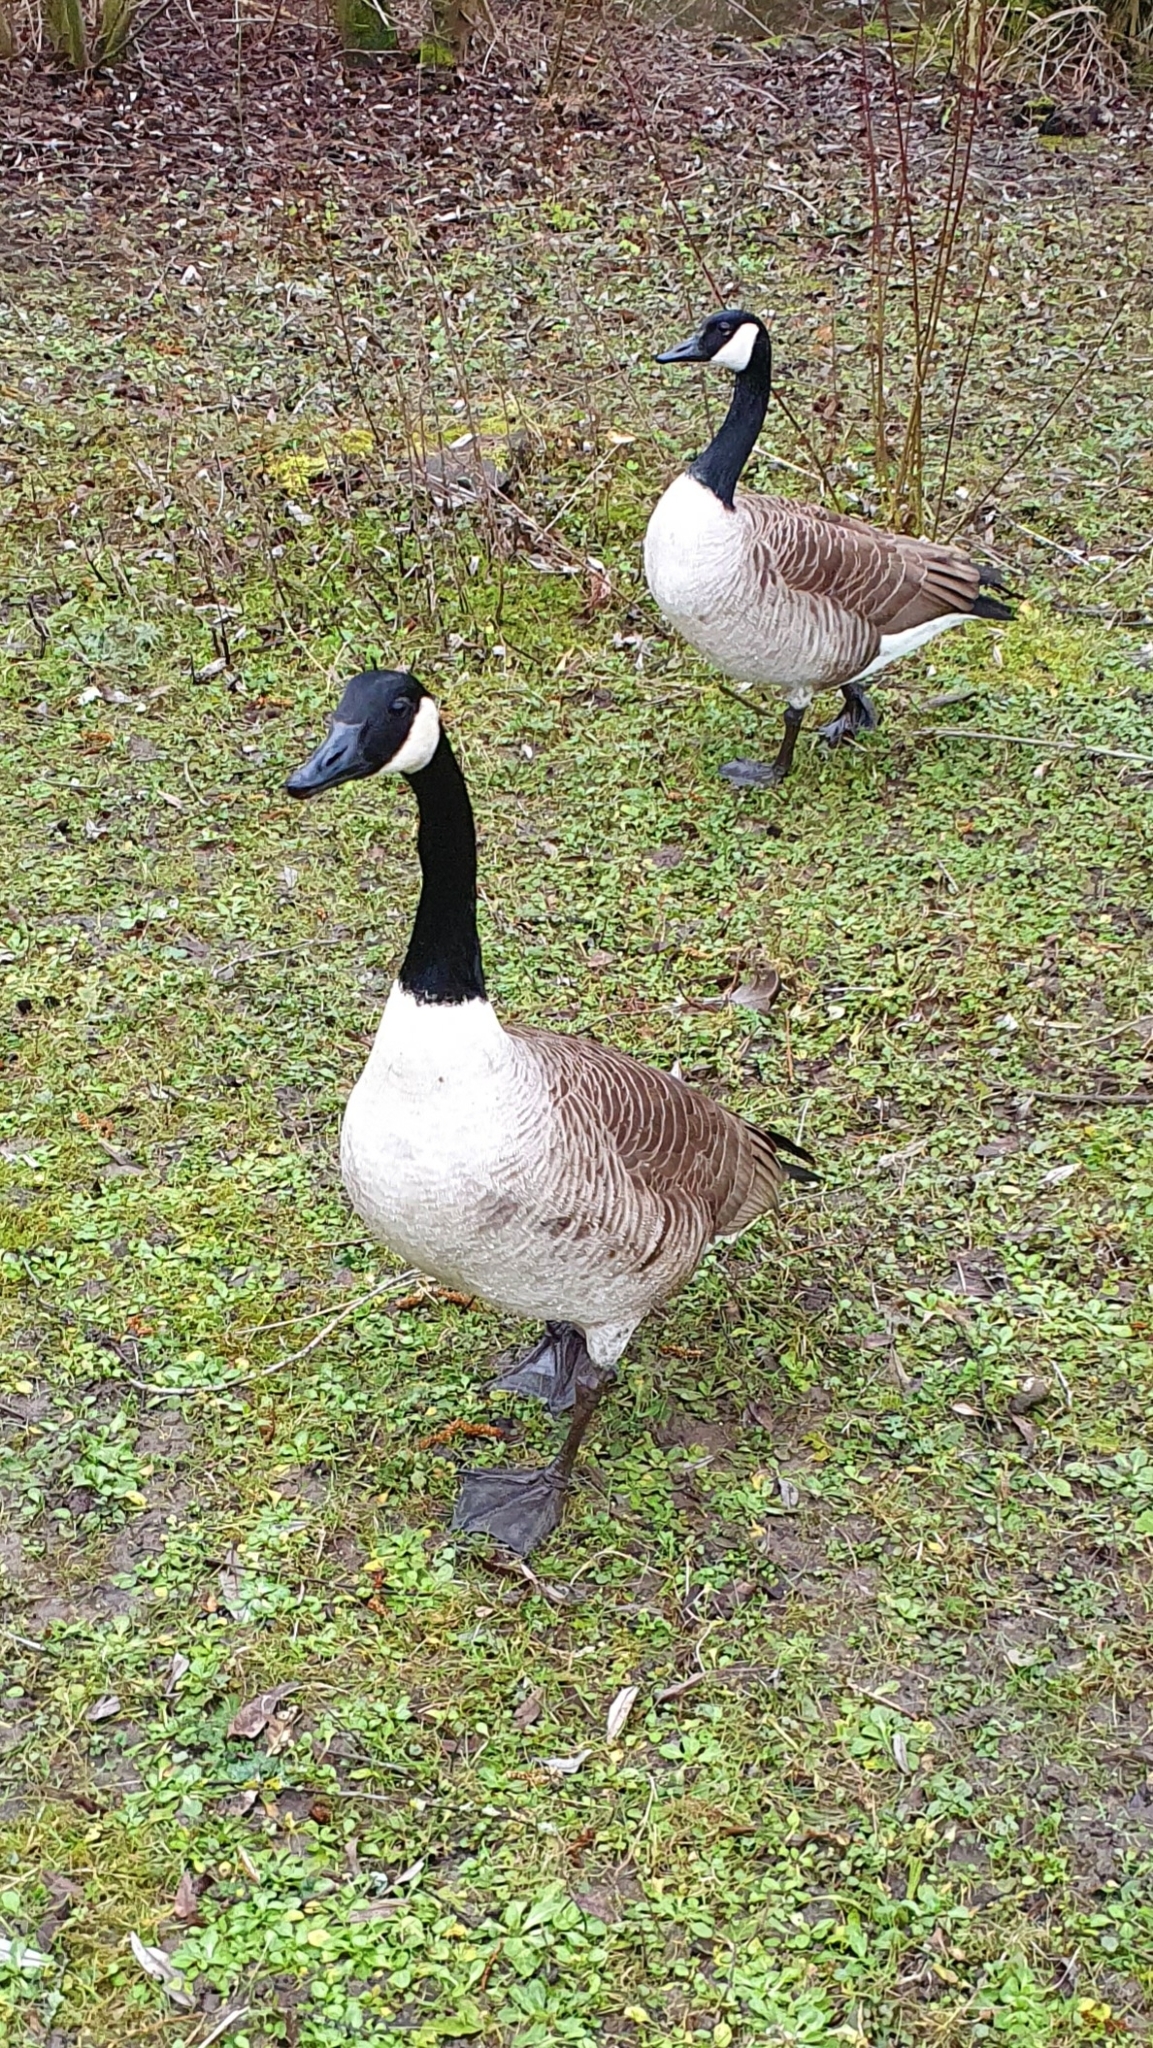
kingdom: Animalia
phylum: Chordata
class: Aves
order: Anseriformes
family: Anatidae
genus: Branta
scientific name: Branta canadensis
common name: Canada goose
